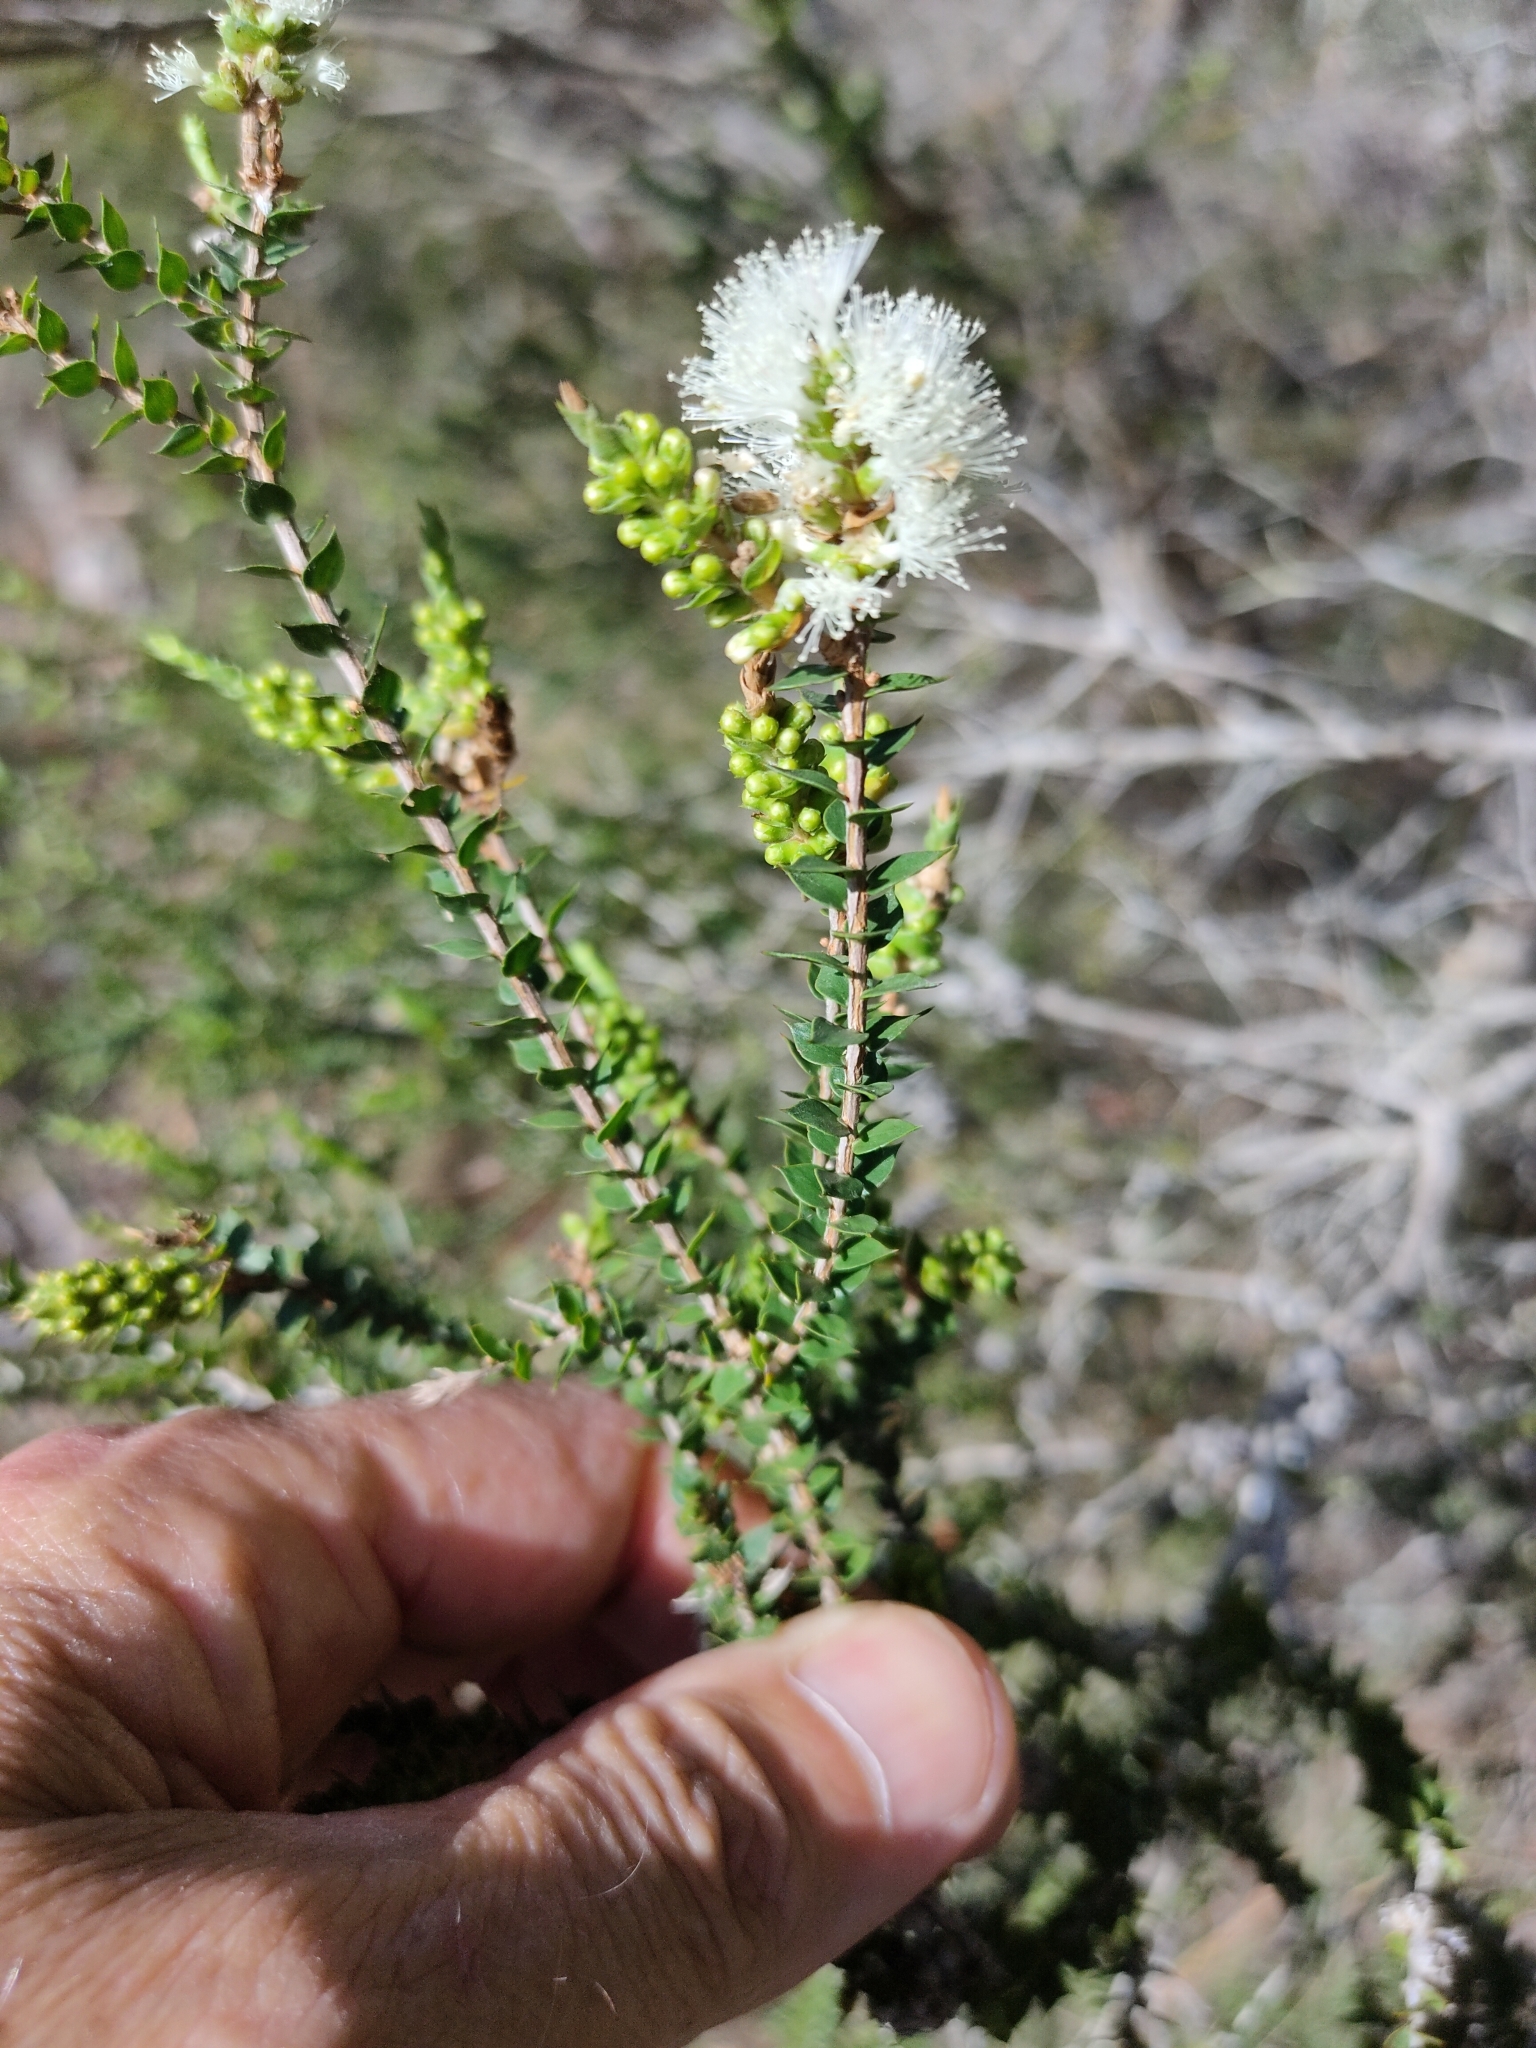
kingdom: Plantae
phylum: Tracheophyta
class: Magnoliopsida
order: Myrtales
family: Myrtaceae
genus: Melaleuca
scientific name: Melaleuca styphelioides
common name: Prickly paperbark
